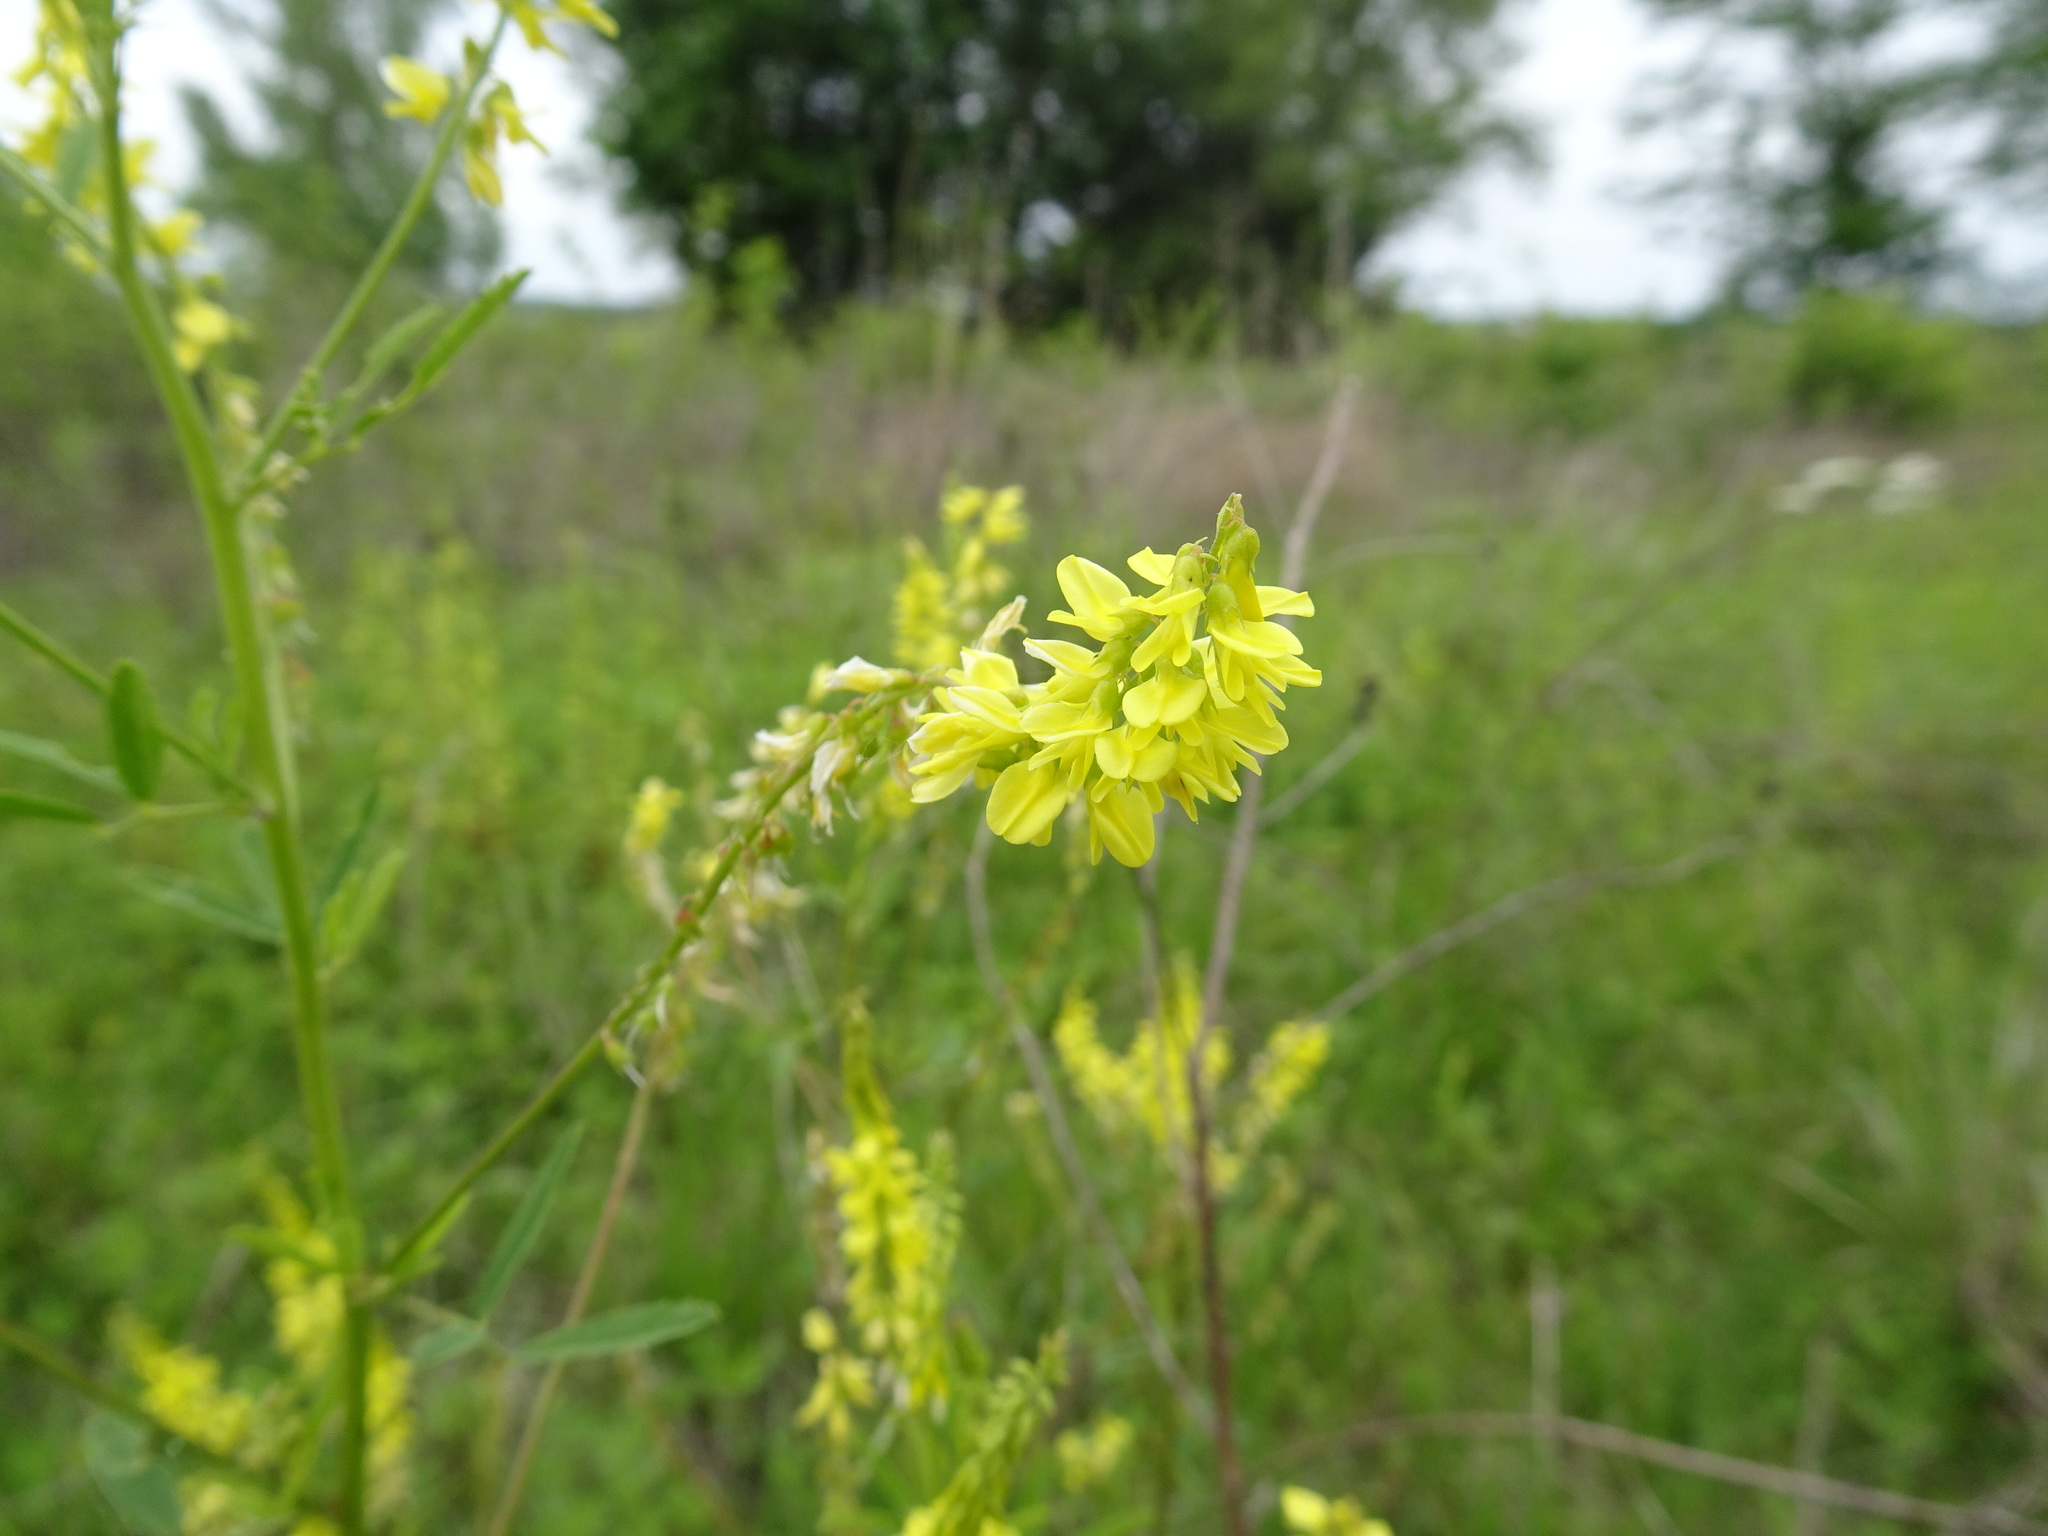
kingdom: Plantae
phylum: Tracheophyta
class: Magnoliopsida
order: Fabales
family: Fabaceae
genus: Melilotus
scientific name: Melilotus officinalis
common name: Sweetclover
